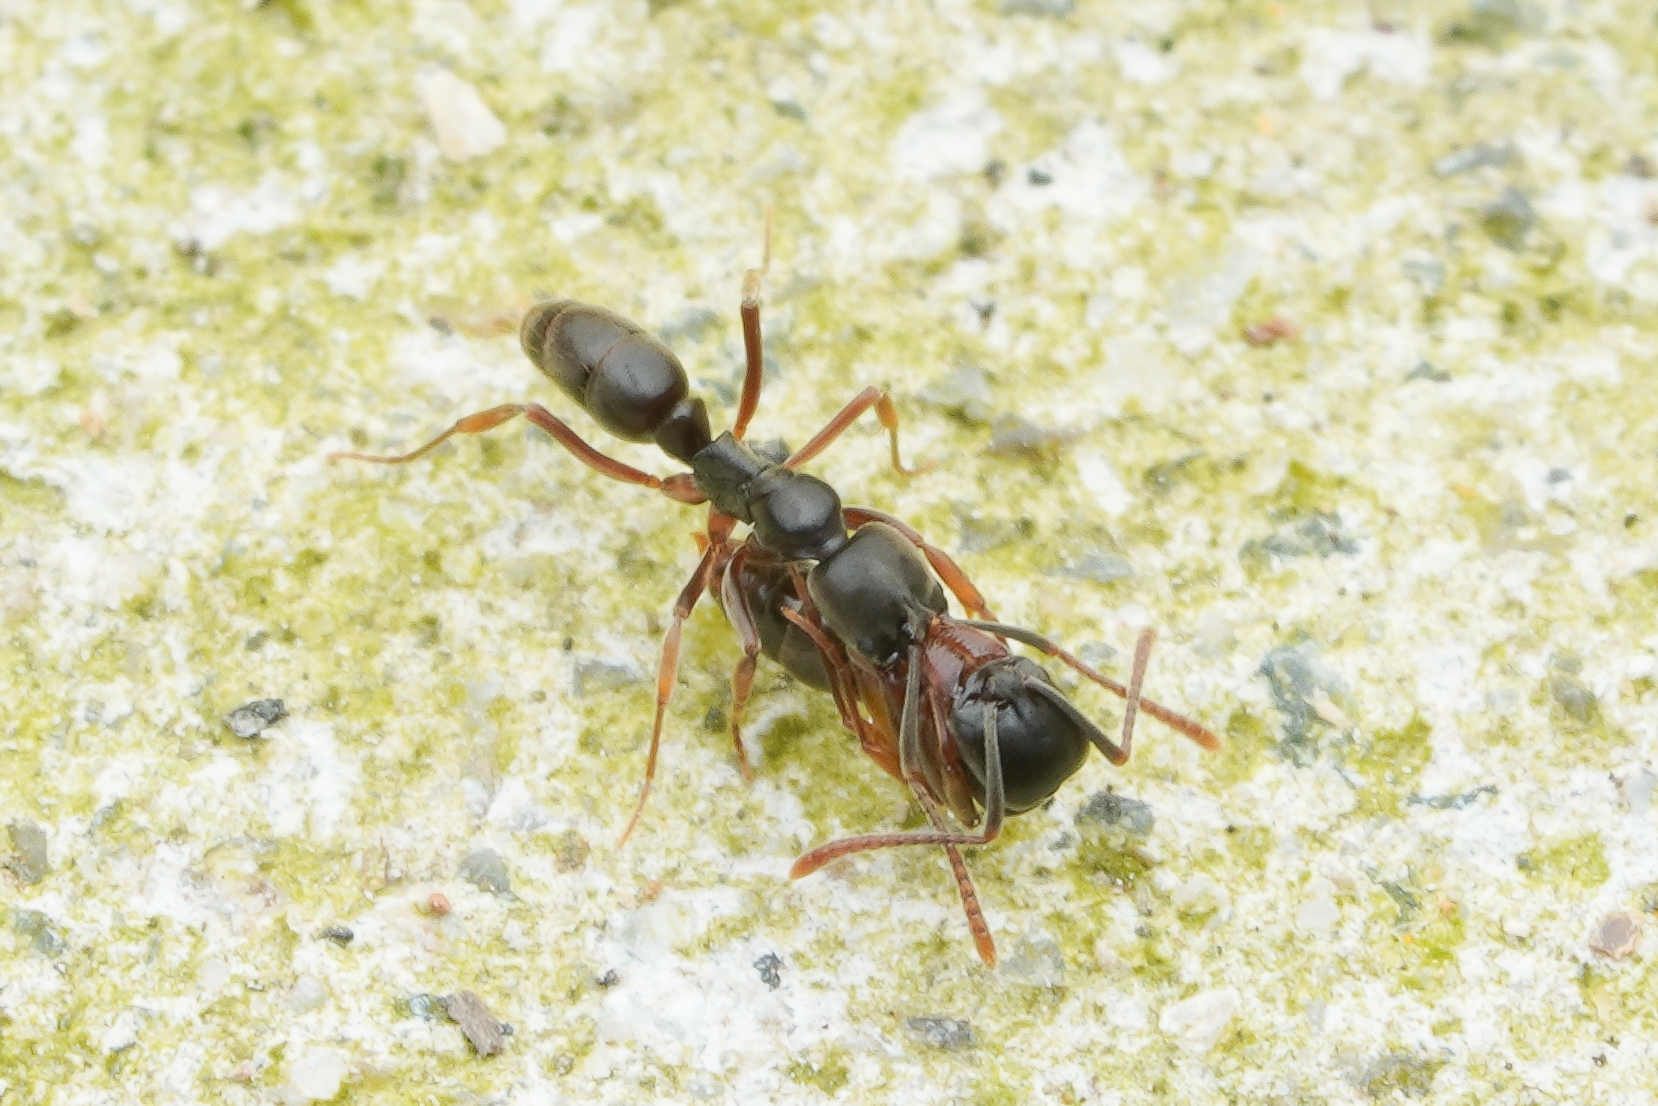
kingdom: Animalia
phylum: Arthropoda
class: Insecta
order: Hymenoptera
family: Formicidae
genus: Pachycondyla
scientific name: Pachycondyla chinensis
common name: Asian needle ant
